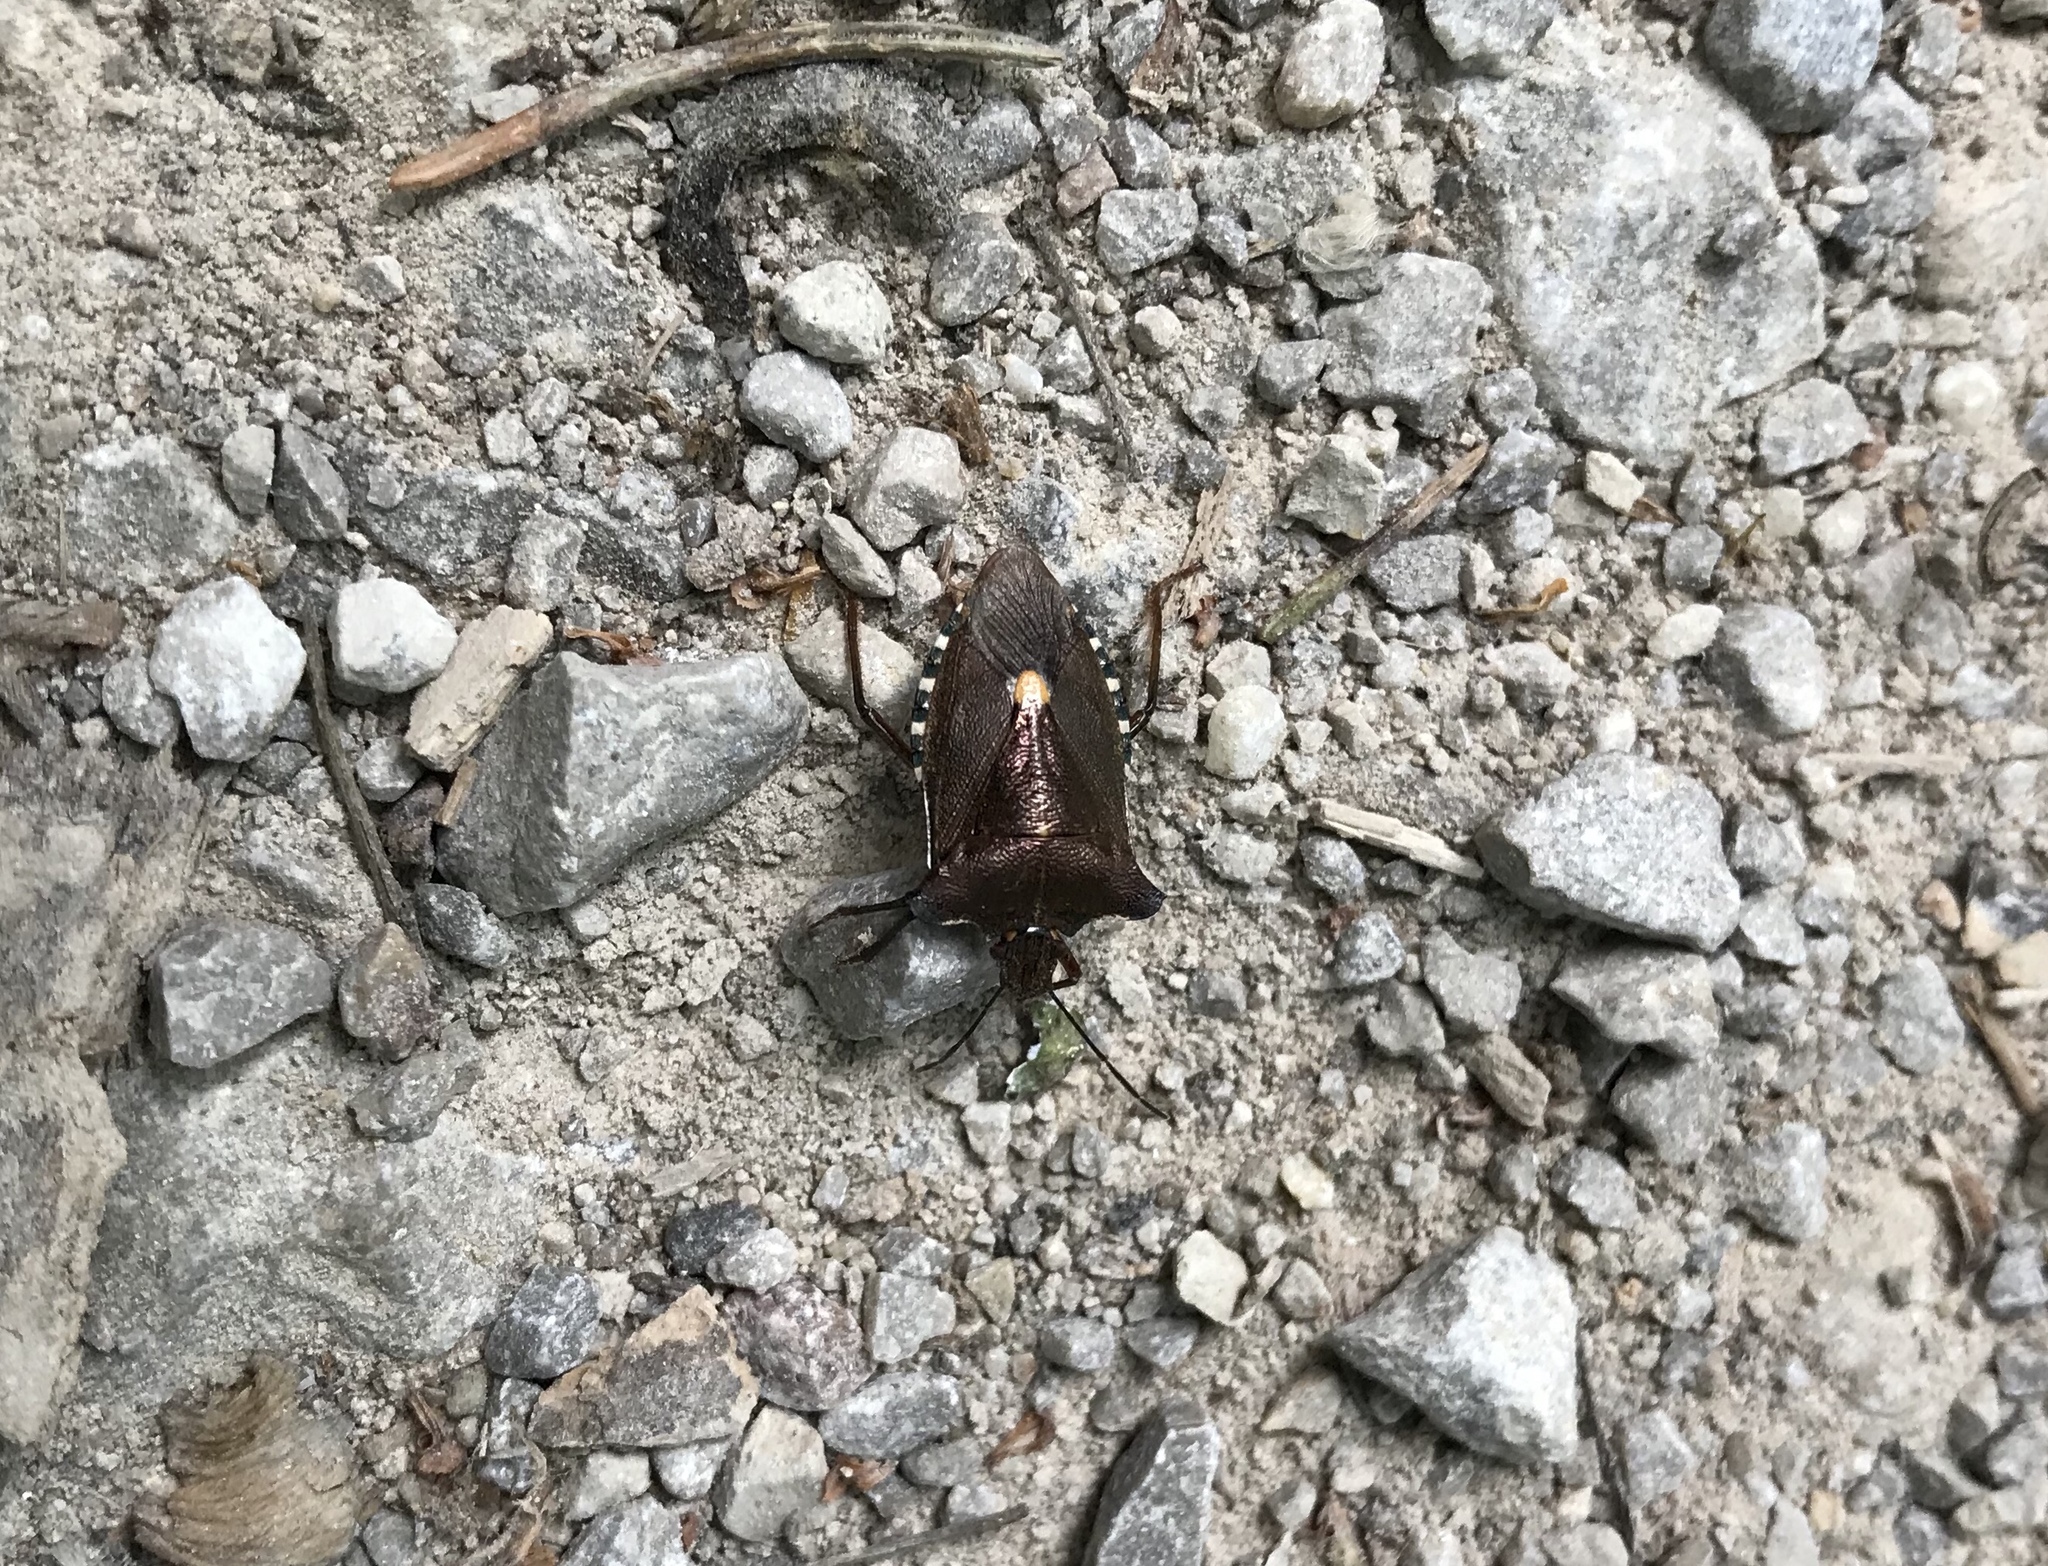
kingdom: Animalia
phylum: Arthropoda
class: Insecta
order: Hemiptera
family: Pentatomidae
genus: Pentatoma
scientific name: Pentatoma rufipes
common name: Forest bug
